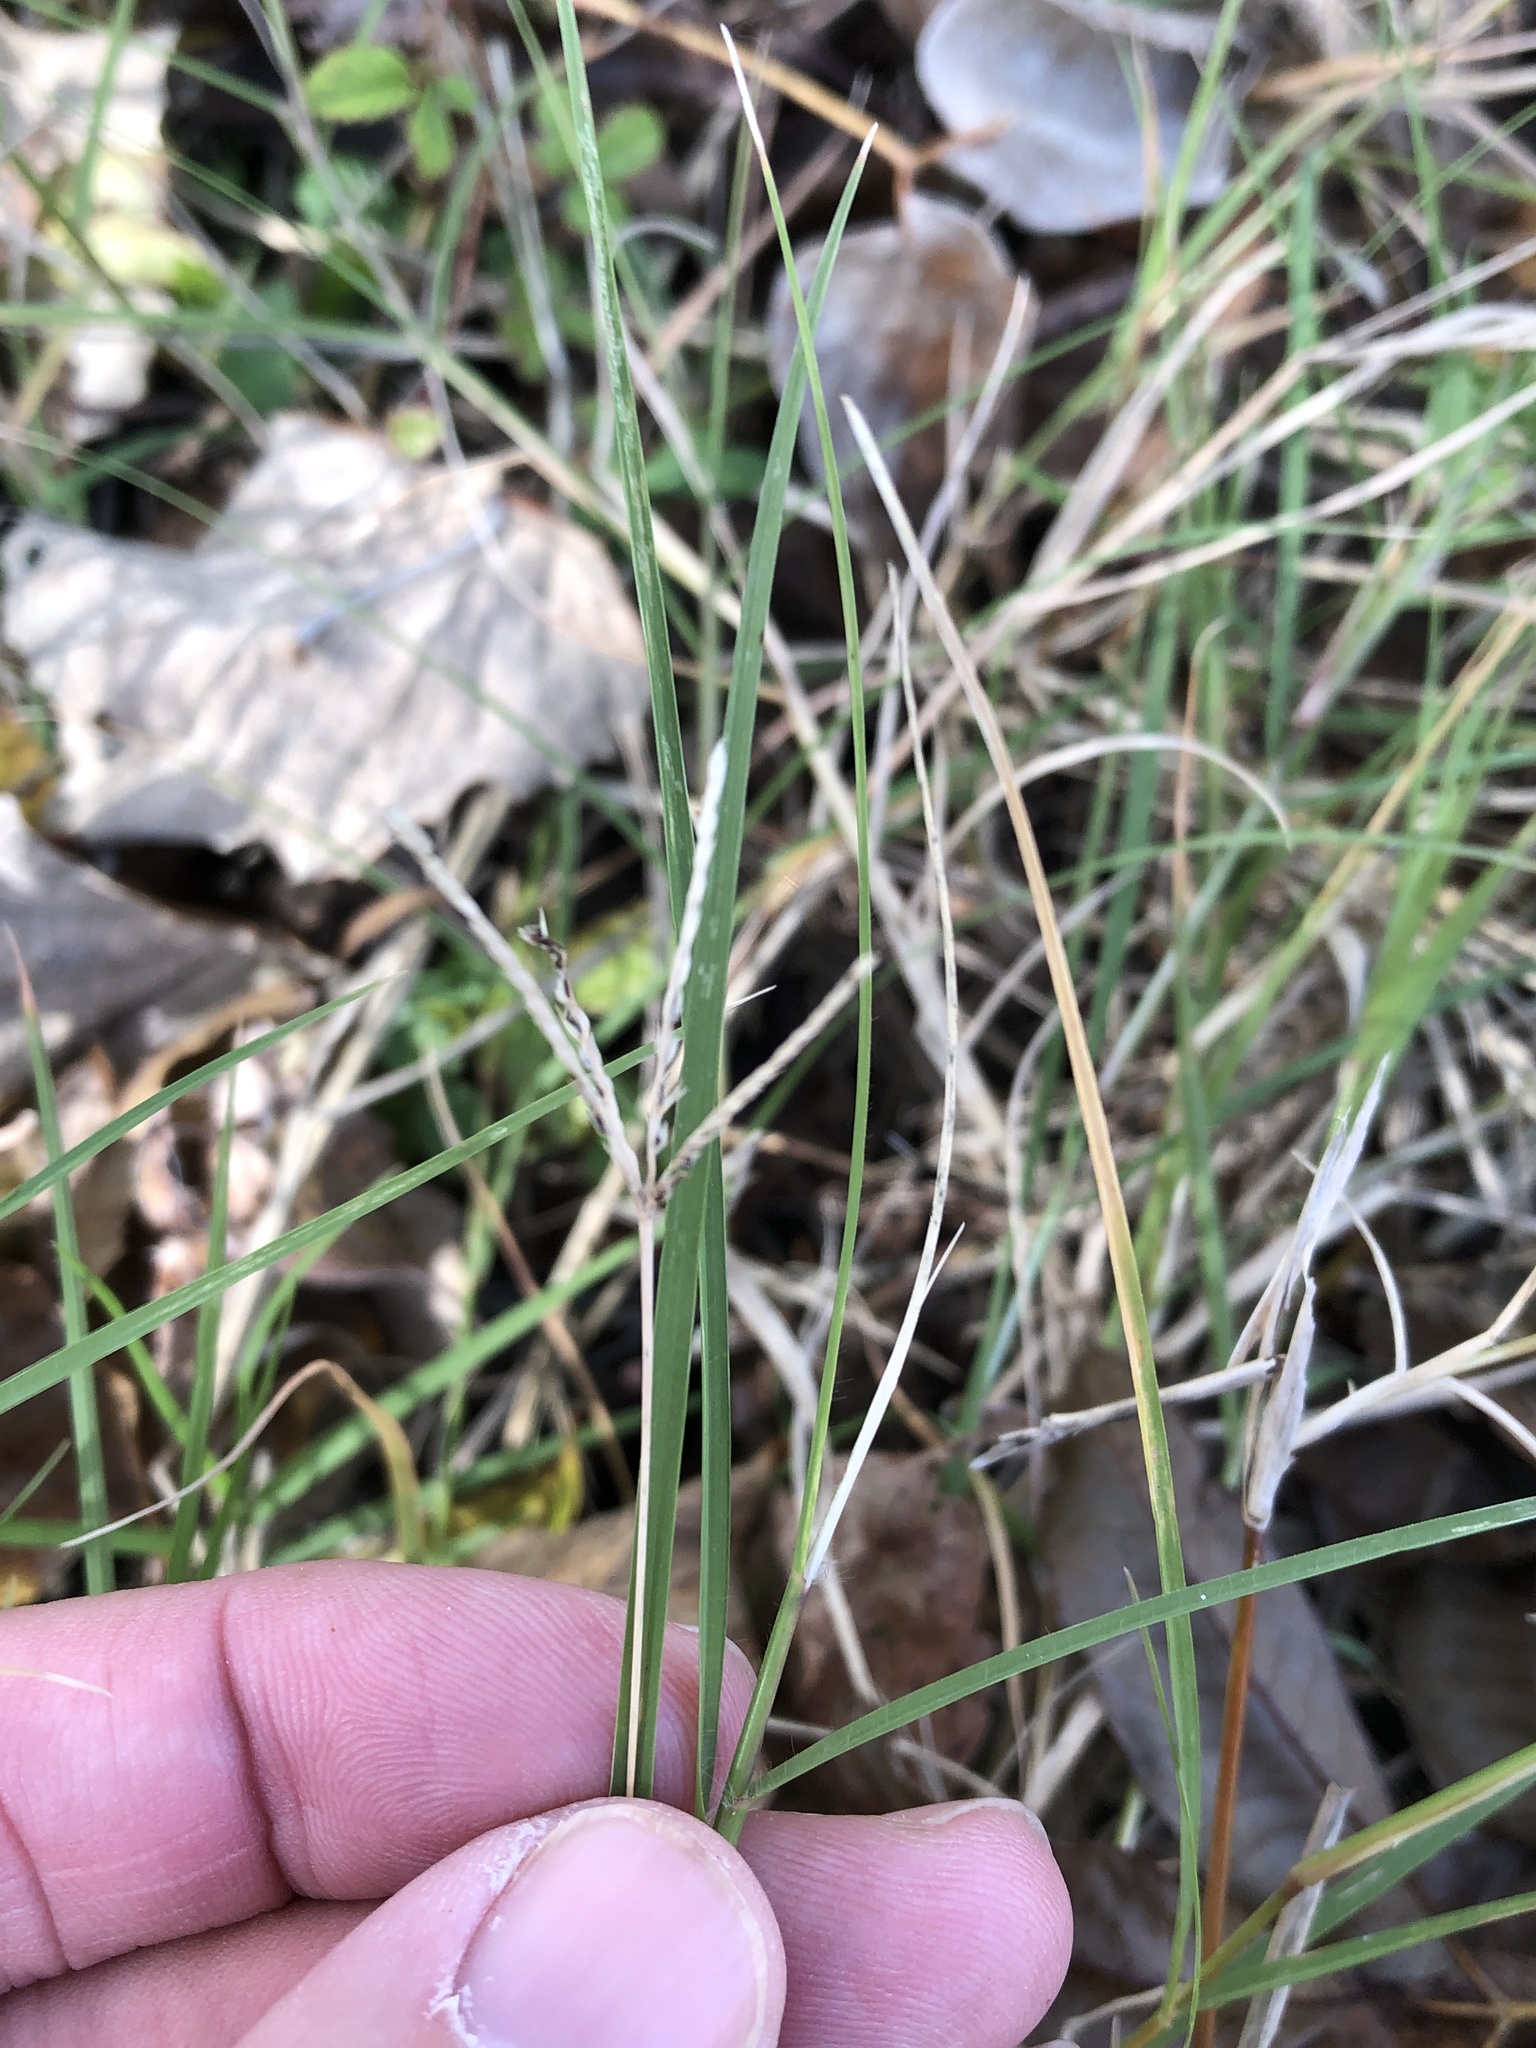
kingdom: Plantae
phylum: Tracheophyta
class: Liliopsida
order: Poales
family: Poaceae
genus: Cynodon
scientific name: Cynodon dactylon
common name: Bermuda grass
